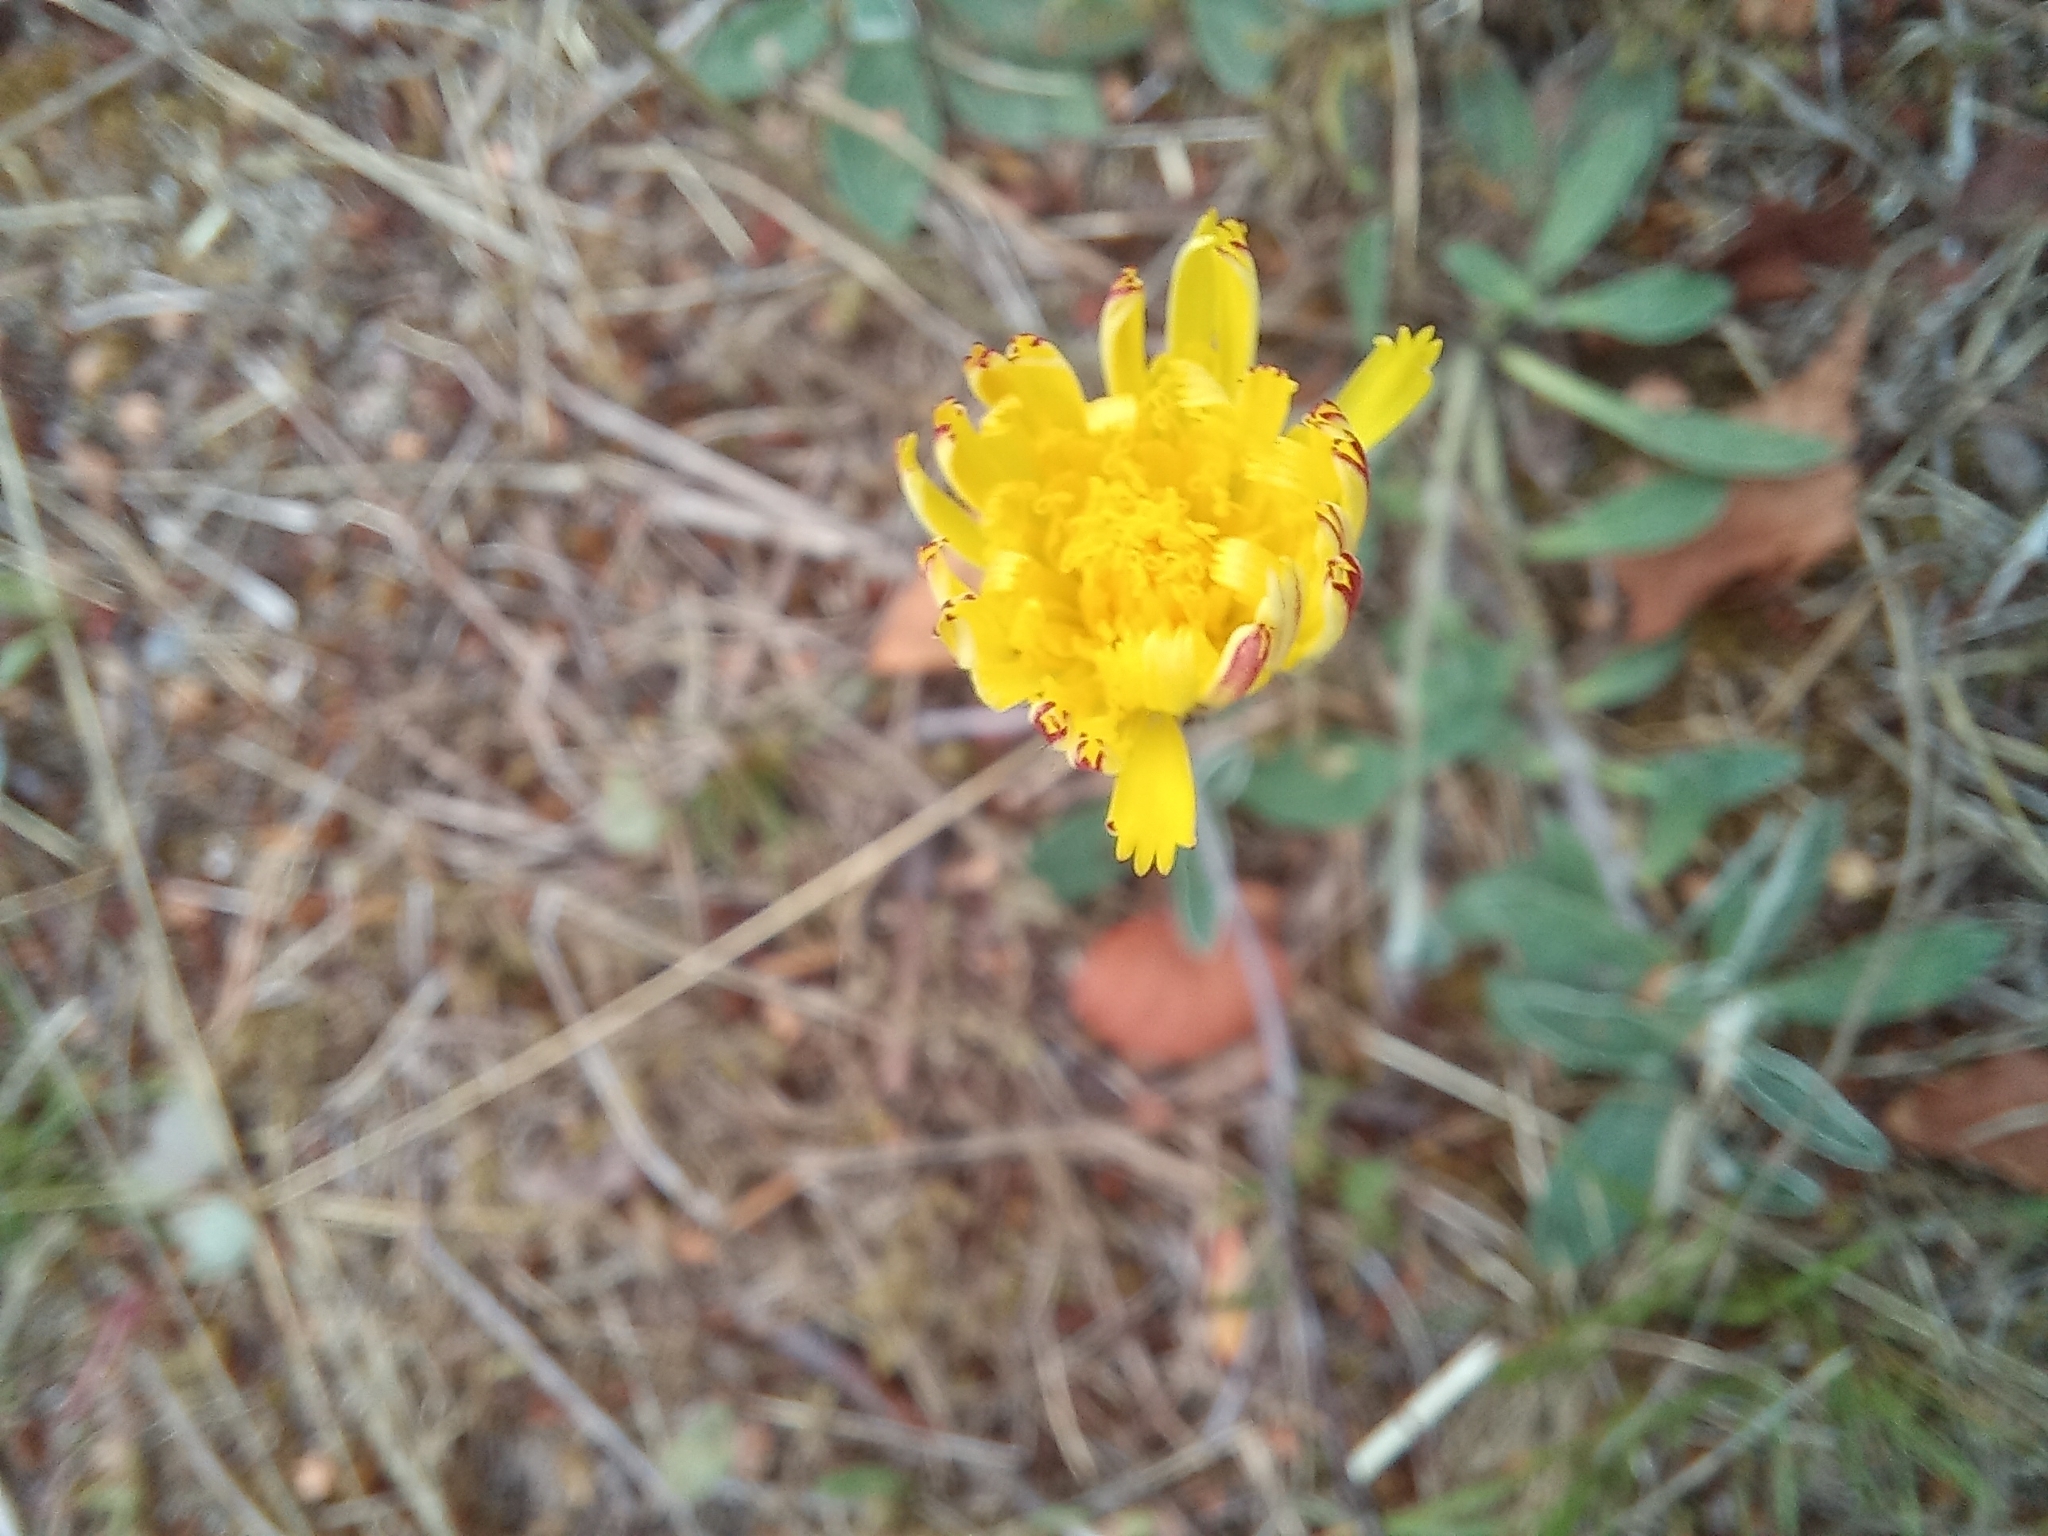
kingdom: Plantae
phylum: Tracheophyta
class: Magnoliopsida
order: Asterales
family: Asteraceae
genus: Pilosella
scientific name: Pilosella officinarum
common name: Mouse-ear hawkweed
